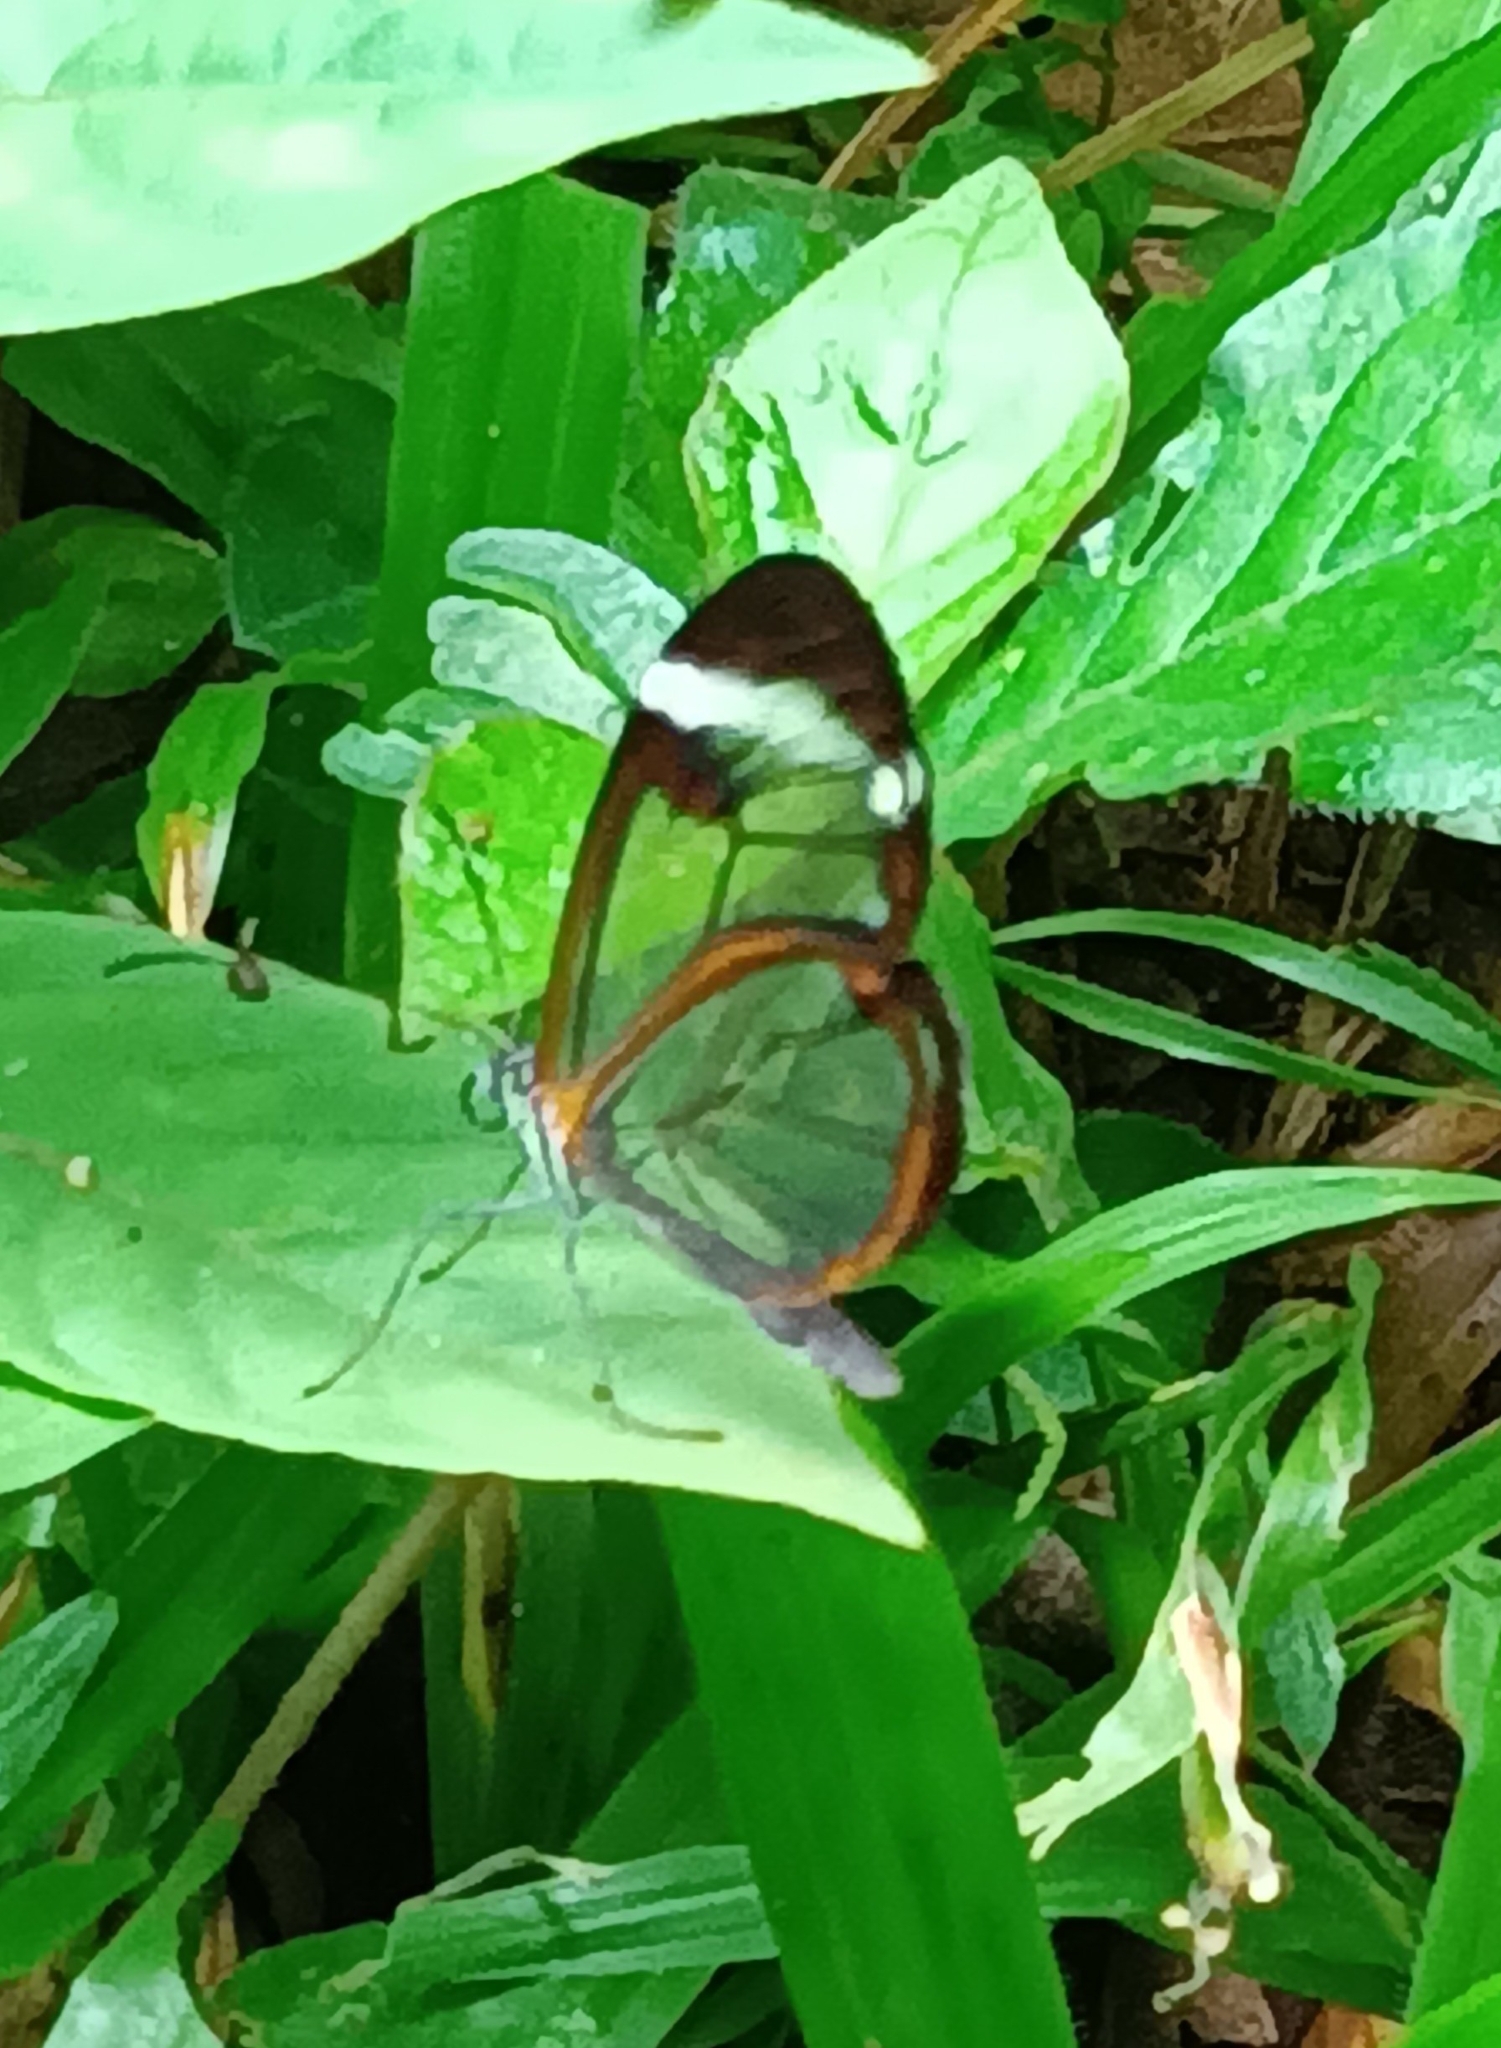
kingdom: Animalia
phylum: Arthropoda
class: Insecta
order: Lepidoptera
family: Nymphalidae
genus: Greta
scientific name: Greta morgane
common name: Thick-tipped greta
